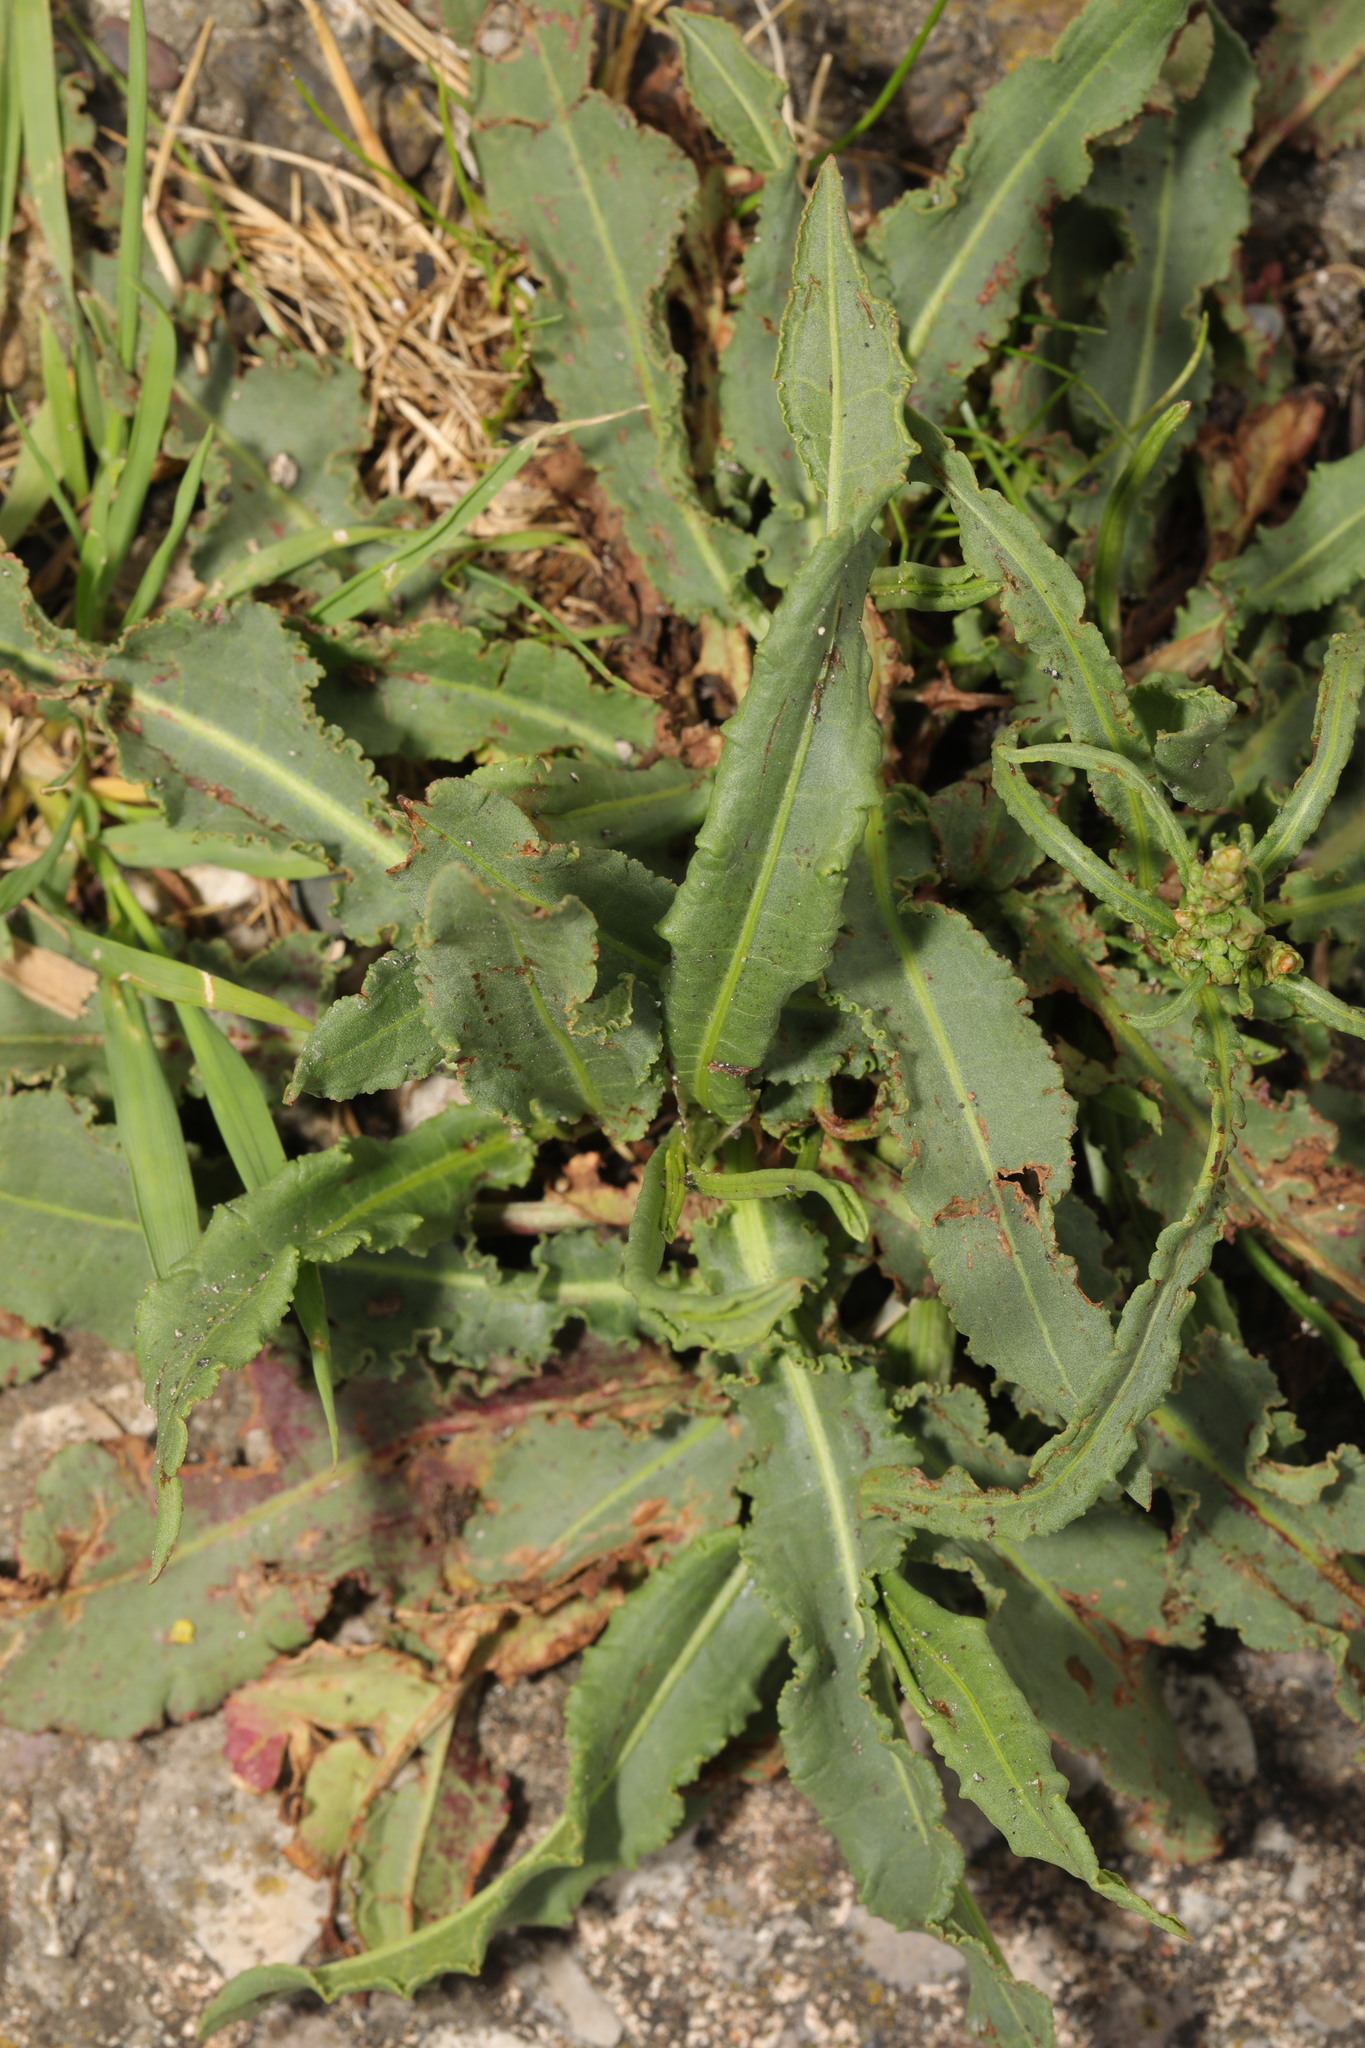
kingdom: Plantae
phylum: Tracheophyta
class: Magnoliopsida
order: Caryophyllales
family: Polygonaceae
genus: Rumex
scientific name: Rumex crispus
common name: Curled dock
